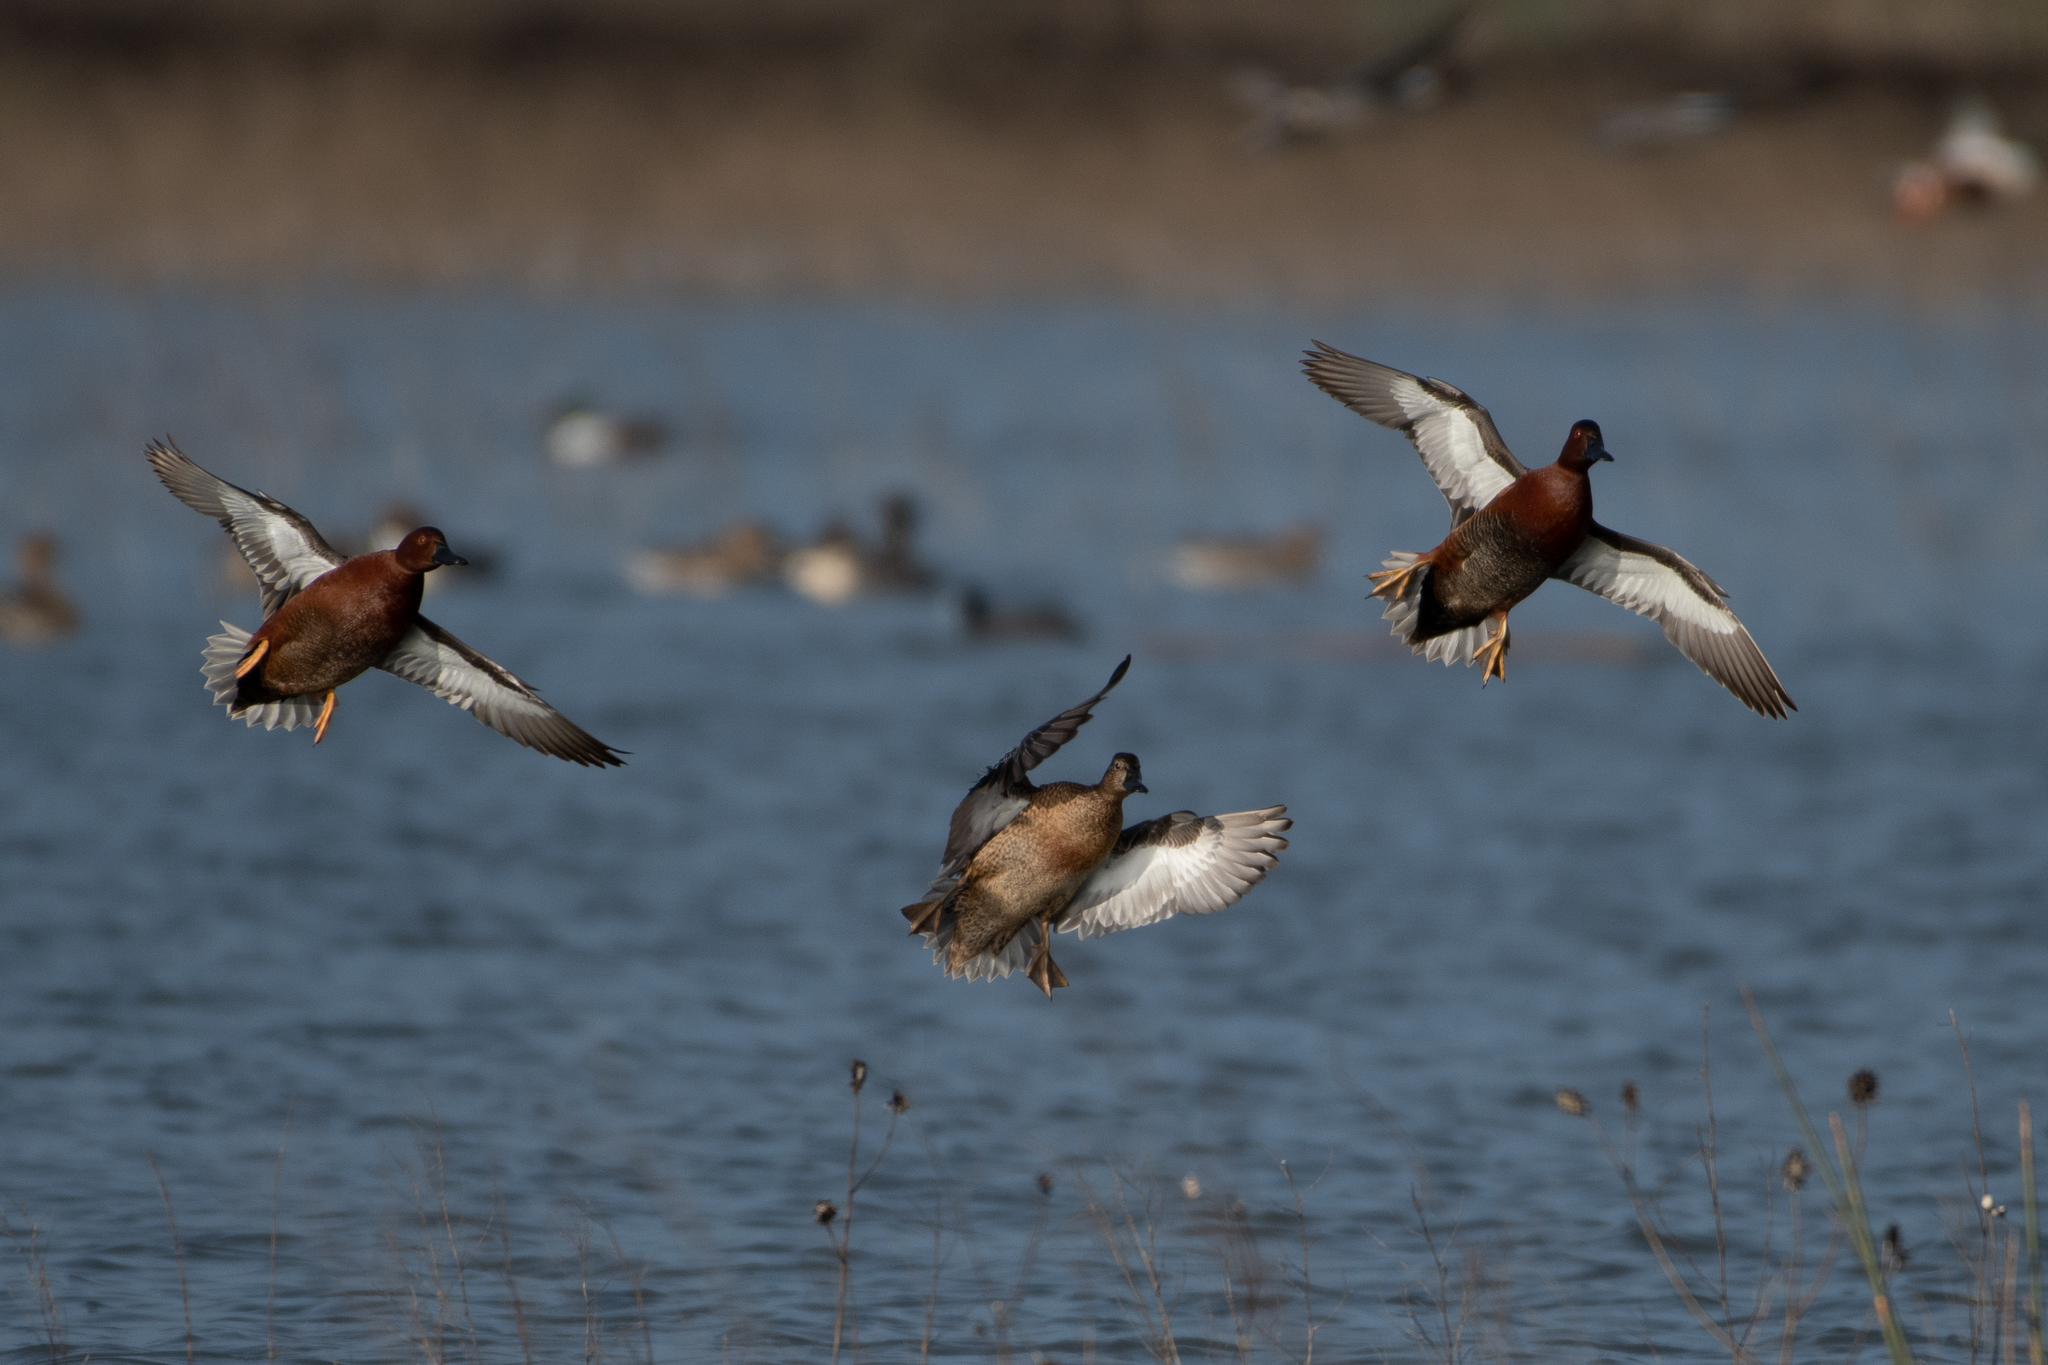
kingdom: Animalia
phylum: Chordata
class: Aves
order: Anseriformes
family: Anatidae
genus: Spatula
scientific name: Spatula cyanoptera
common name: Cinnamon teal
